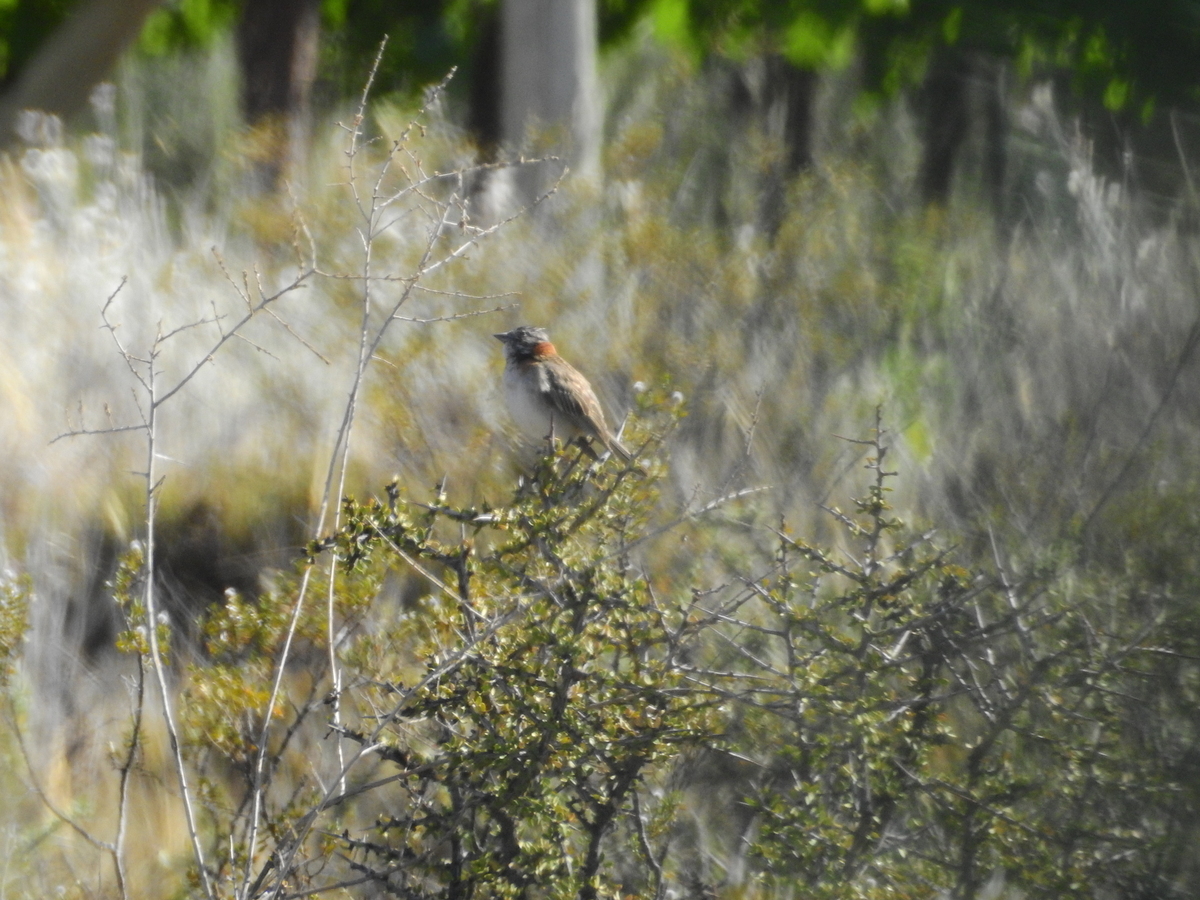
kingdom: Animalia
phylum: Chordata
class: Aves
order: Passeriformes
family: Passerellidae
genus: Zonotrichia
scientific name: Zonotrichia capensis
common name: Rufous-collared sparrow
